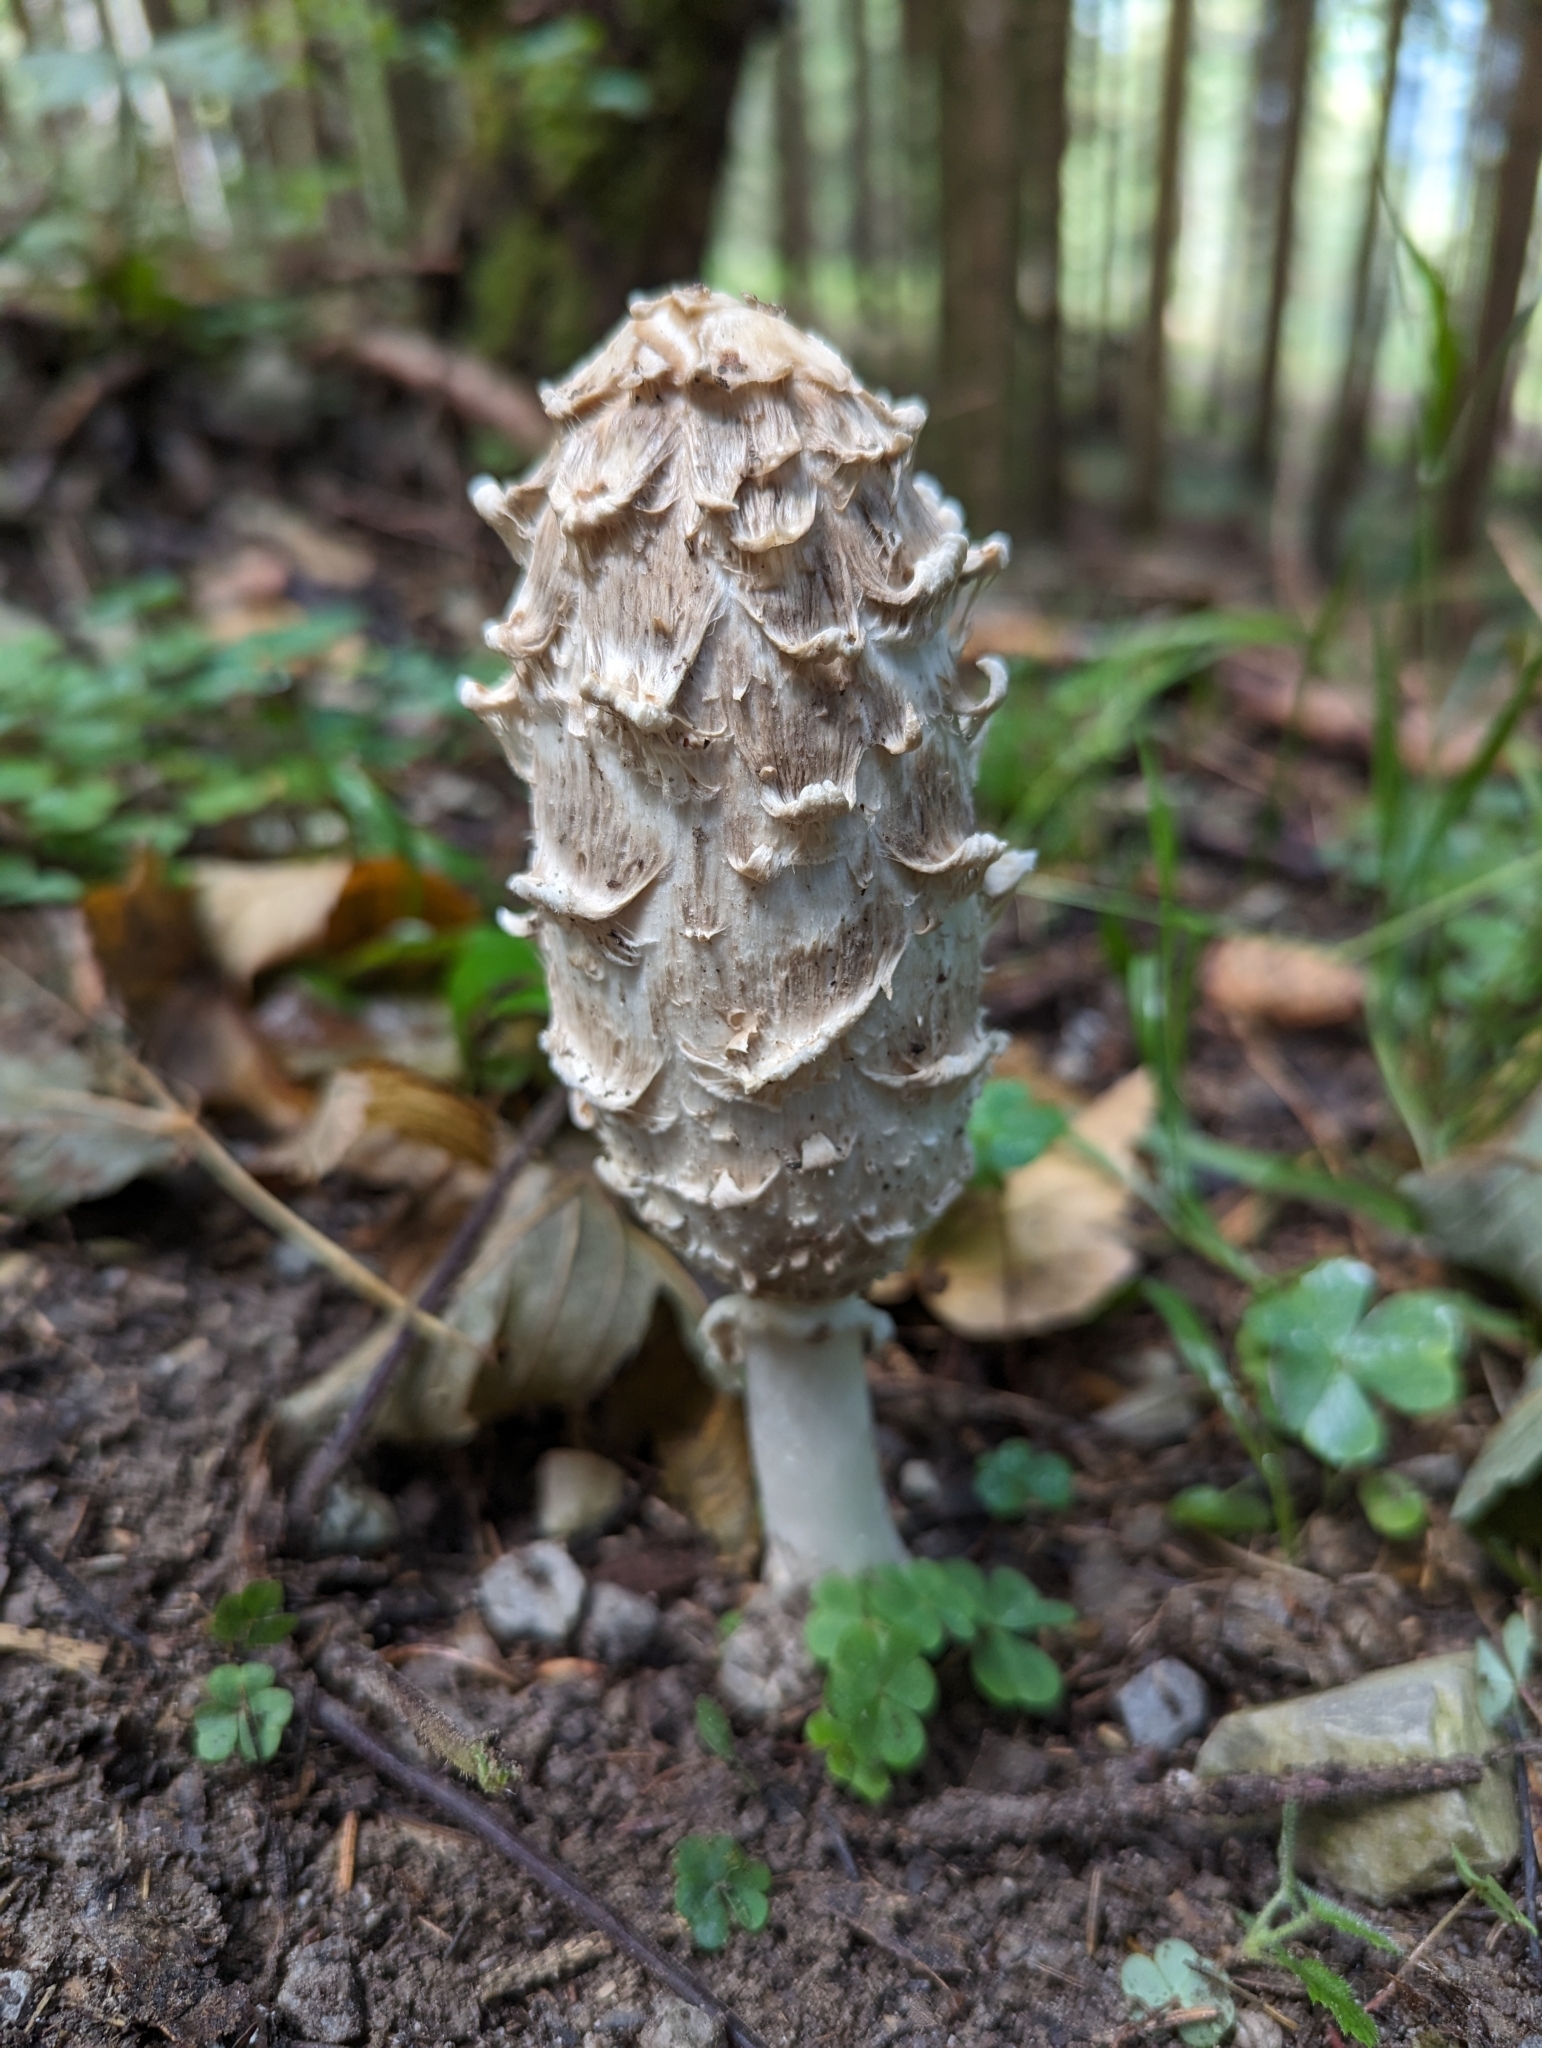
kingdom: Fungi
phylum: Basidiomycota
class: Agaricomycetes
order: Agaricales
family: Agaricaceae
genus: Coprinus
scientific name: Coprinus comatus
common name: Lawyer's wig
